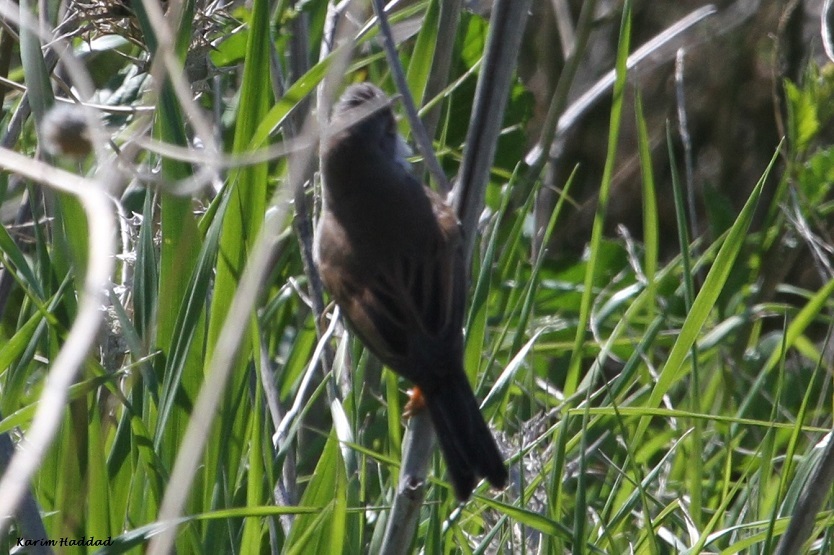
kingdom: Animalia
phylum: Chordata
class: Aves
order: Passeriformes
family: Sylviidae
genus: Sylvia
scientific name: Sylvia communis
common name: Common whitethroat
